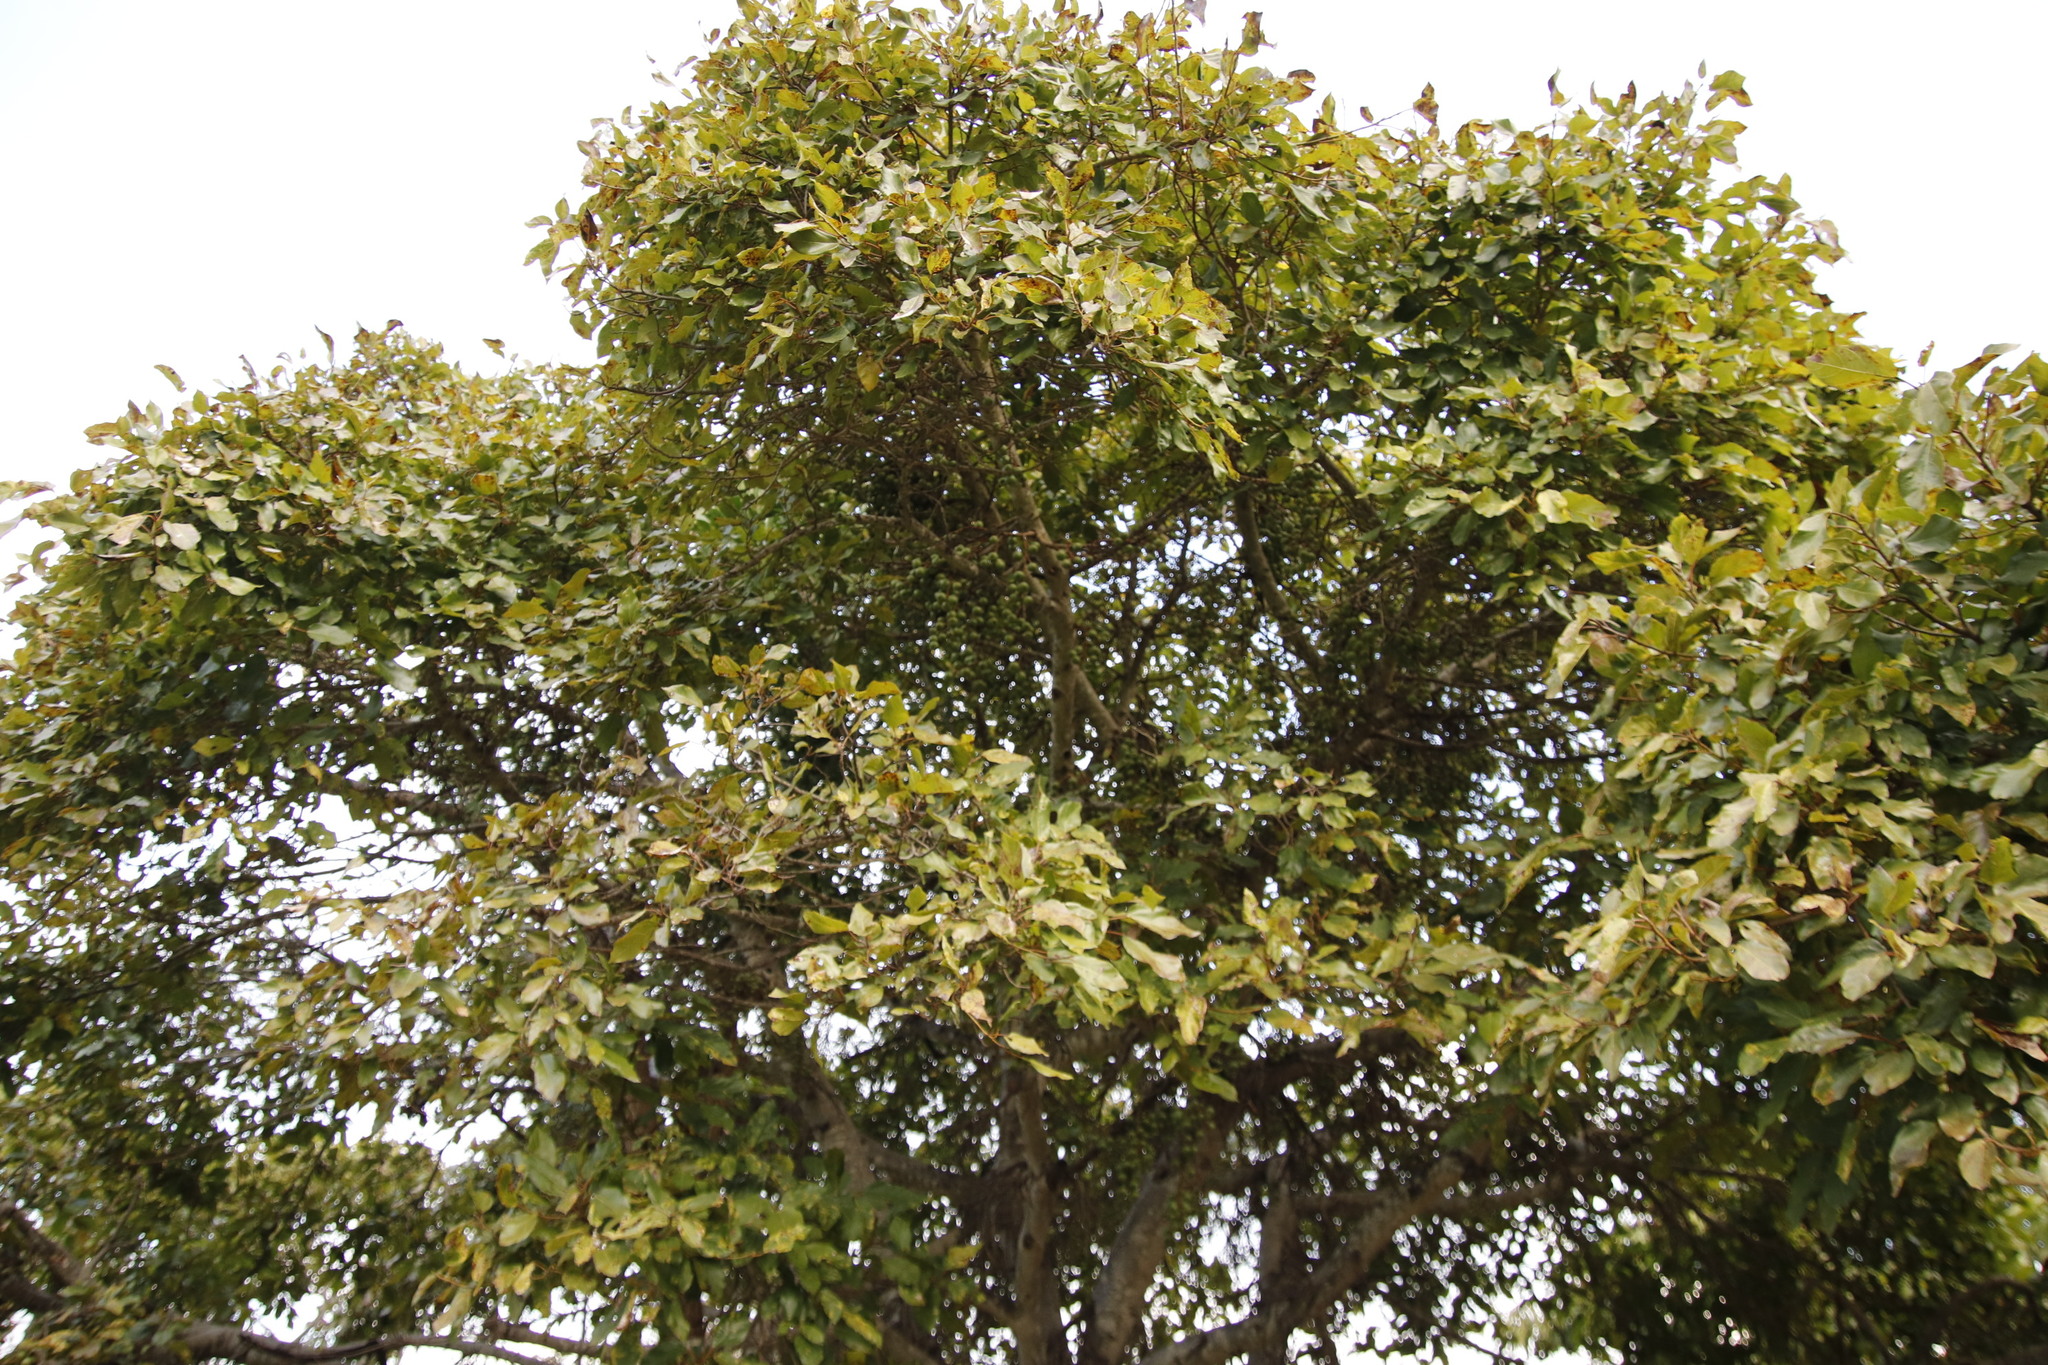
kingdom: Plantae
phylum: Tracheophyta
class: Magnoliopsida
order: Rosales
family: Moraceae
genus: Ficus
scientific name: Ficus sur
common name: Cape fig
